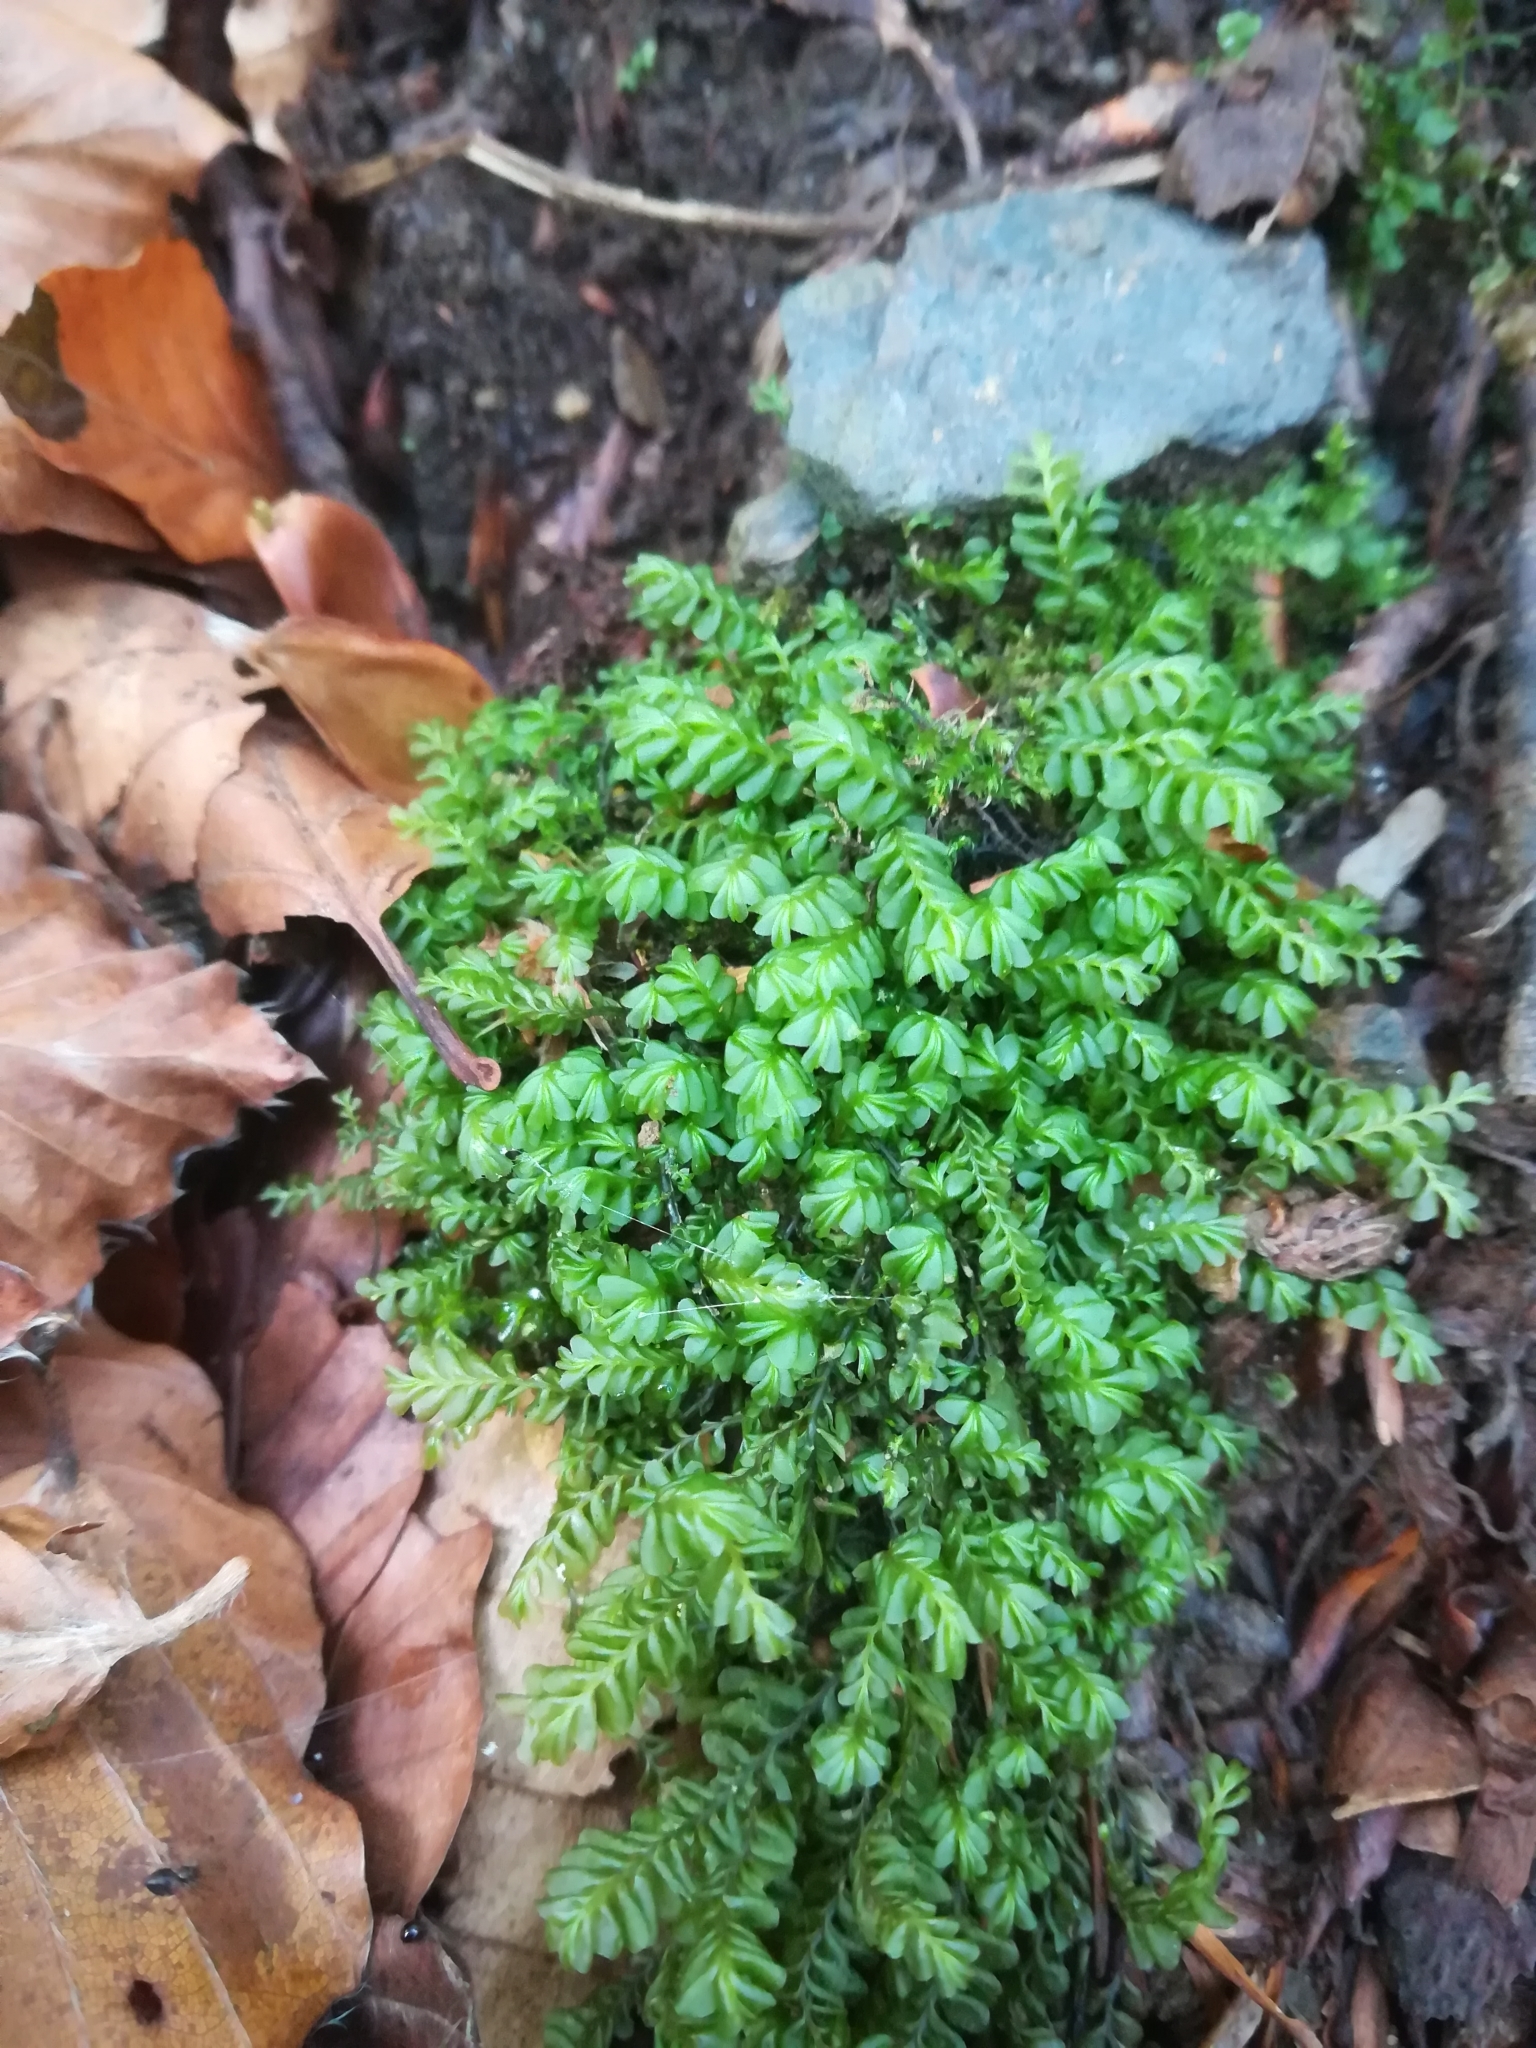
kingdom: Plantae
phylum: Marchantiophyta
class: Jungermanniopsida
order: Jungermanniales
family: Plagiochilaceae
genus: Plagiochila
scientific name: Plagiochila porelloides
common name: Lesser featherwort
